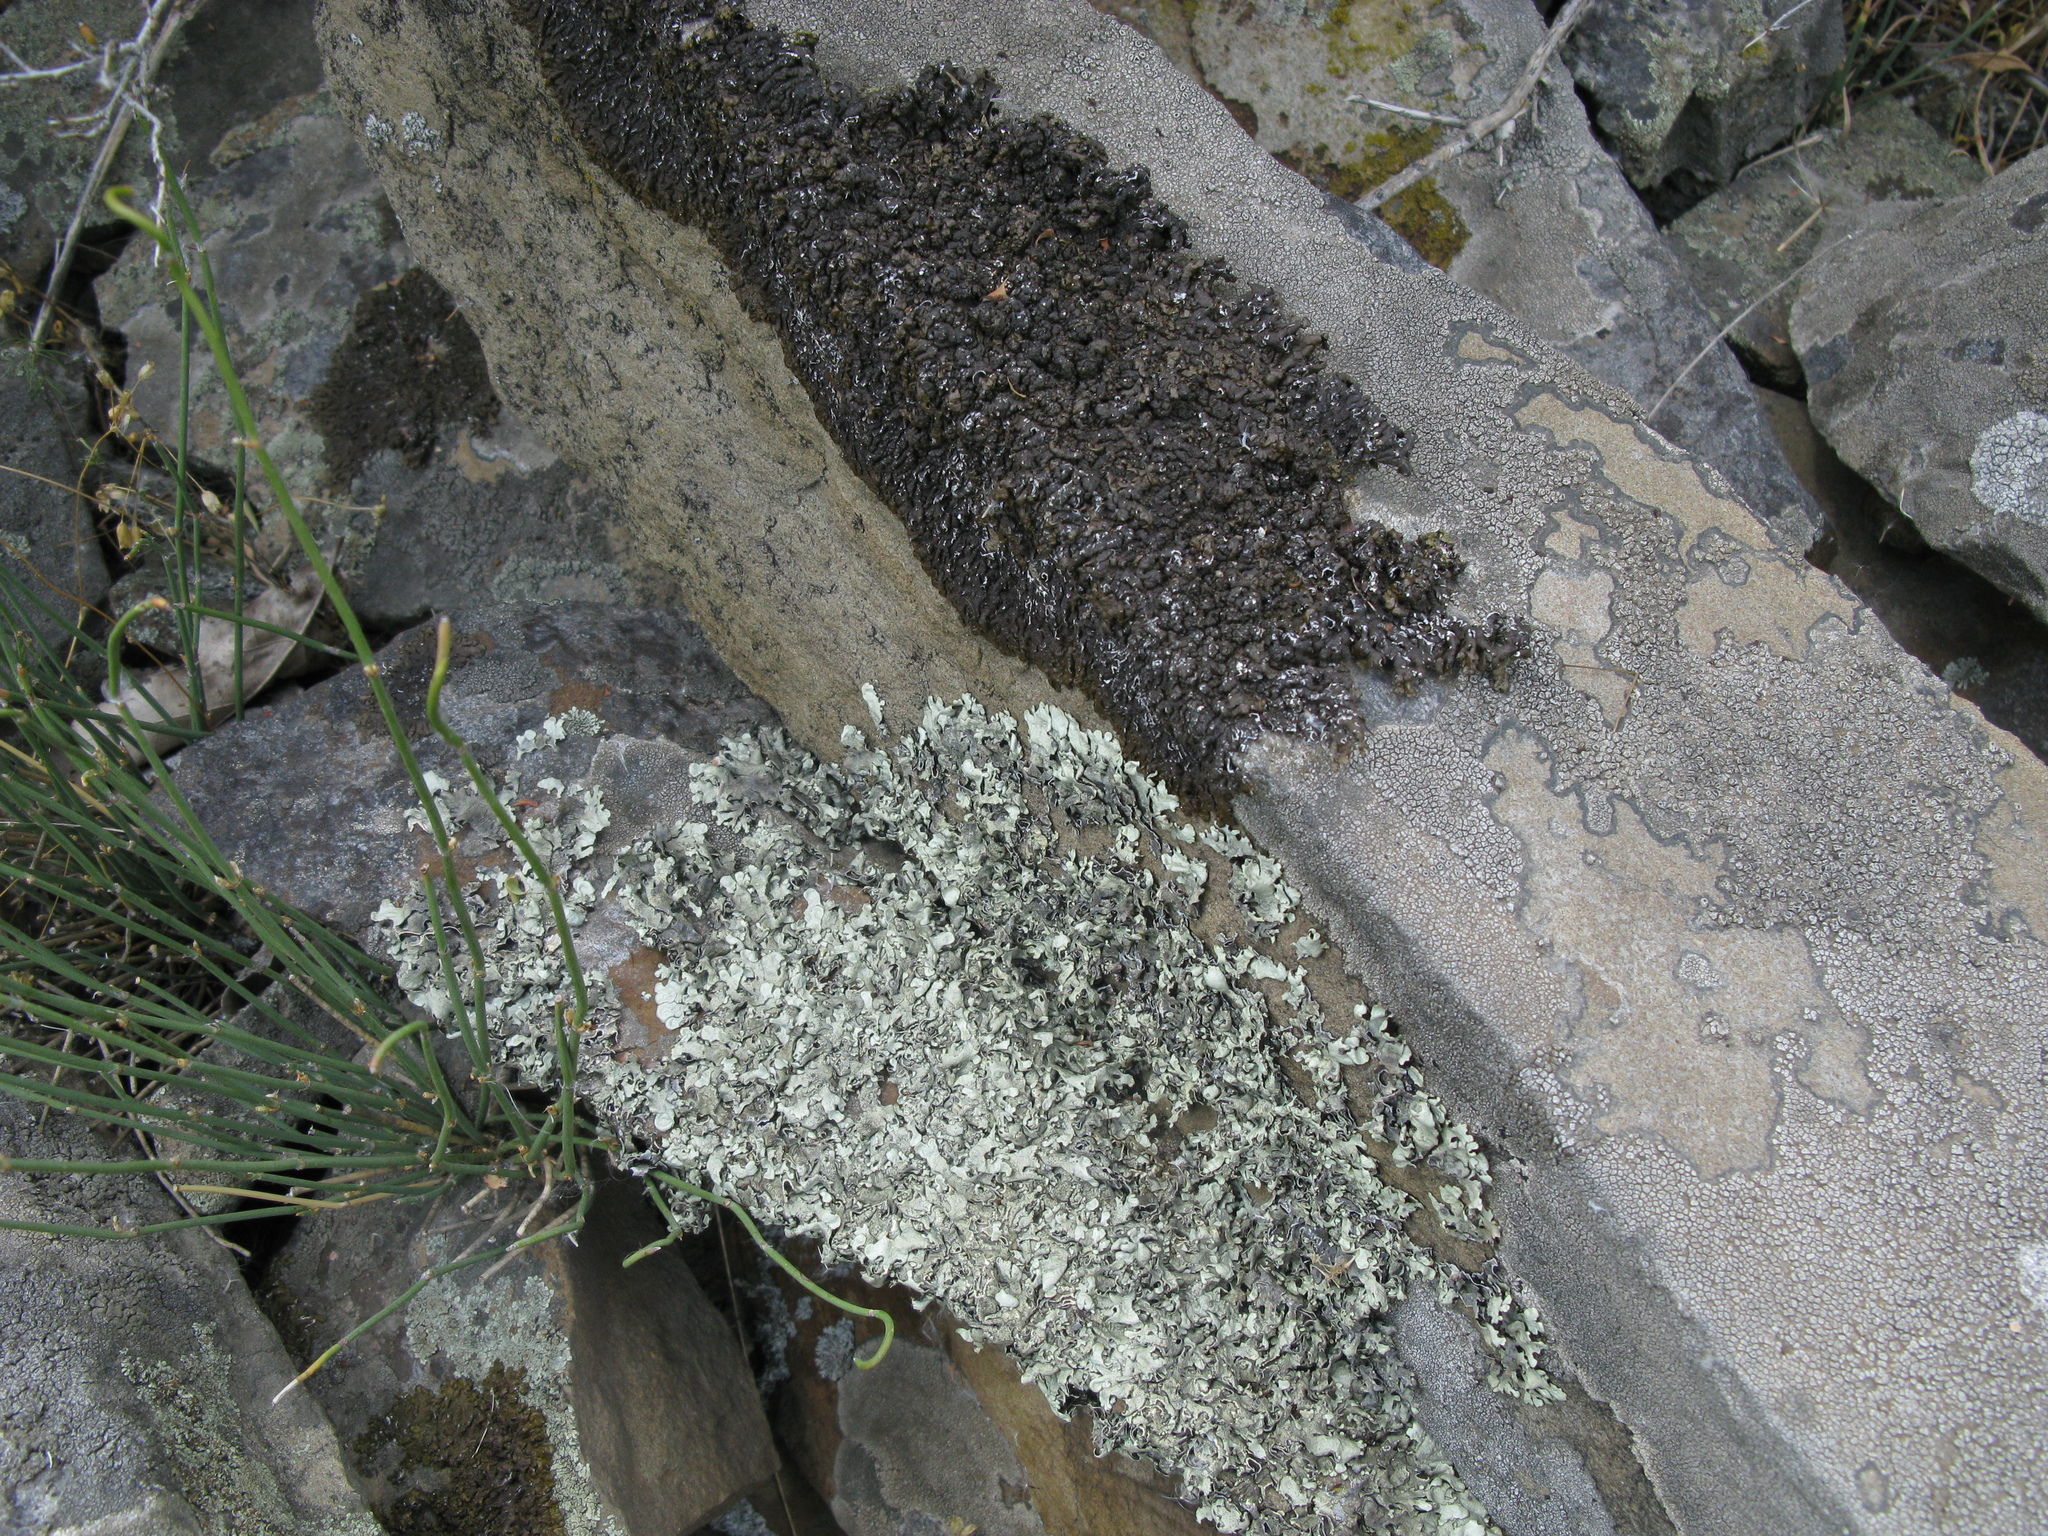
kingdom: Fungi
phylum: Ascomycota
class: Lecanoromycetes
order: Lecanorales
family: Parmeliaceae
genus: Xanthoparmelia
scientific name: Xanthoparmelia pulla
